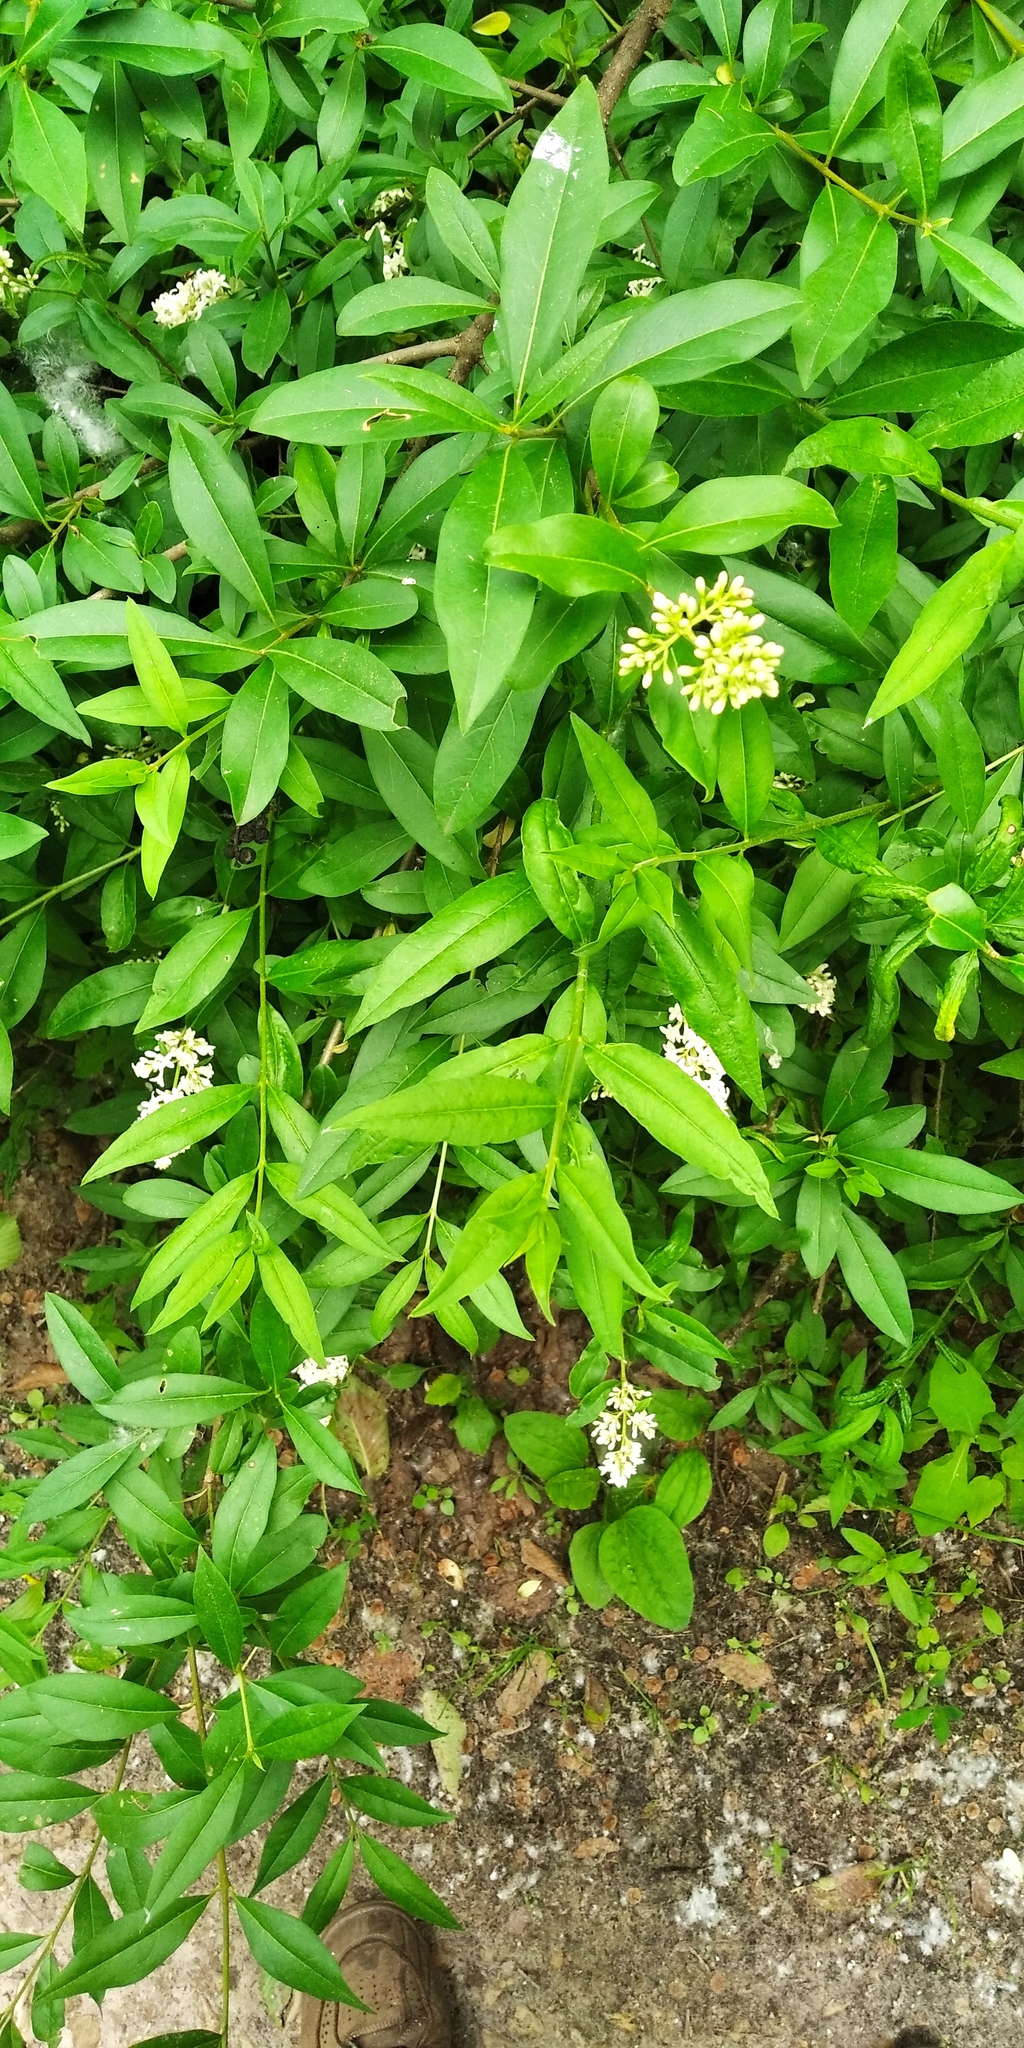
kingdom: Plantae
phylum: Tracheophyta
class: Magnoliopsida
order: Lamiales
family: Oleaceae
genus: Ligustrum
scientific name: Ligustrum vulgare
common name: Wild privet
